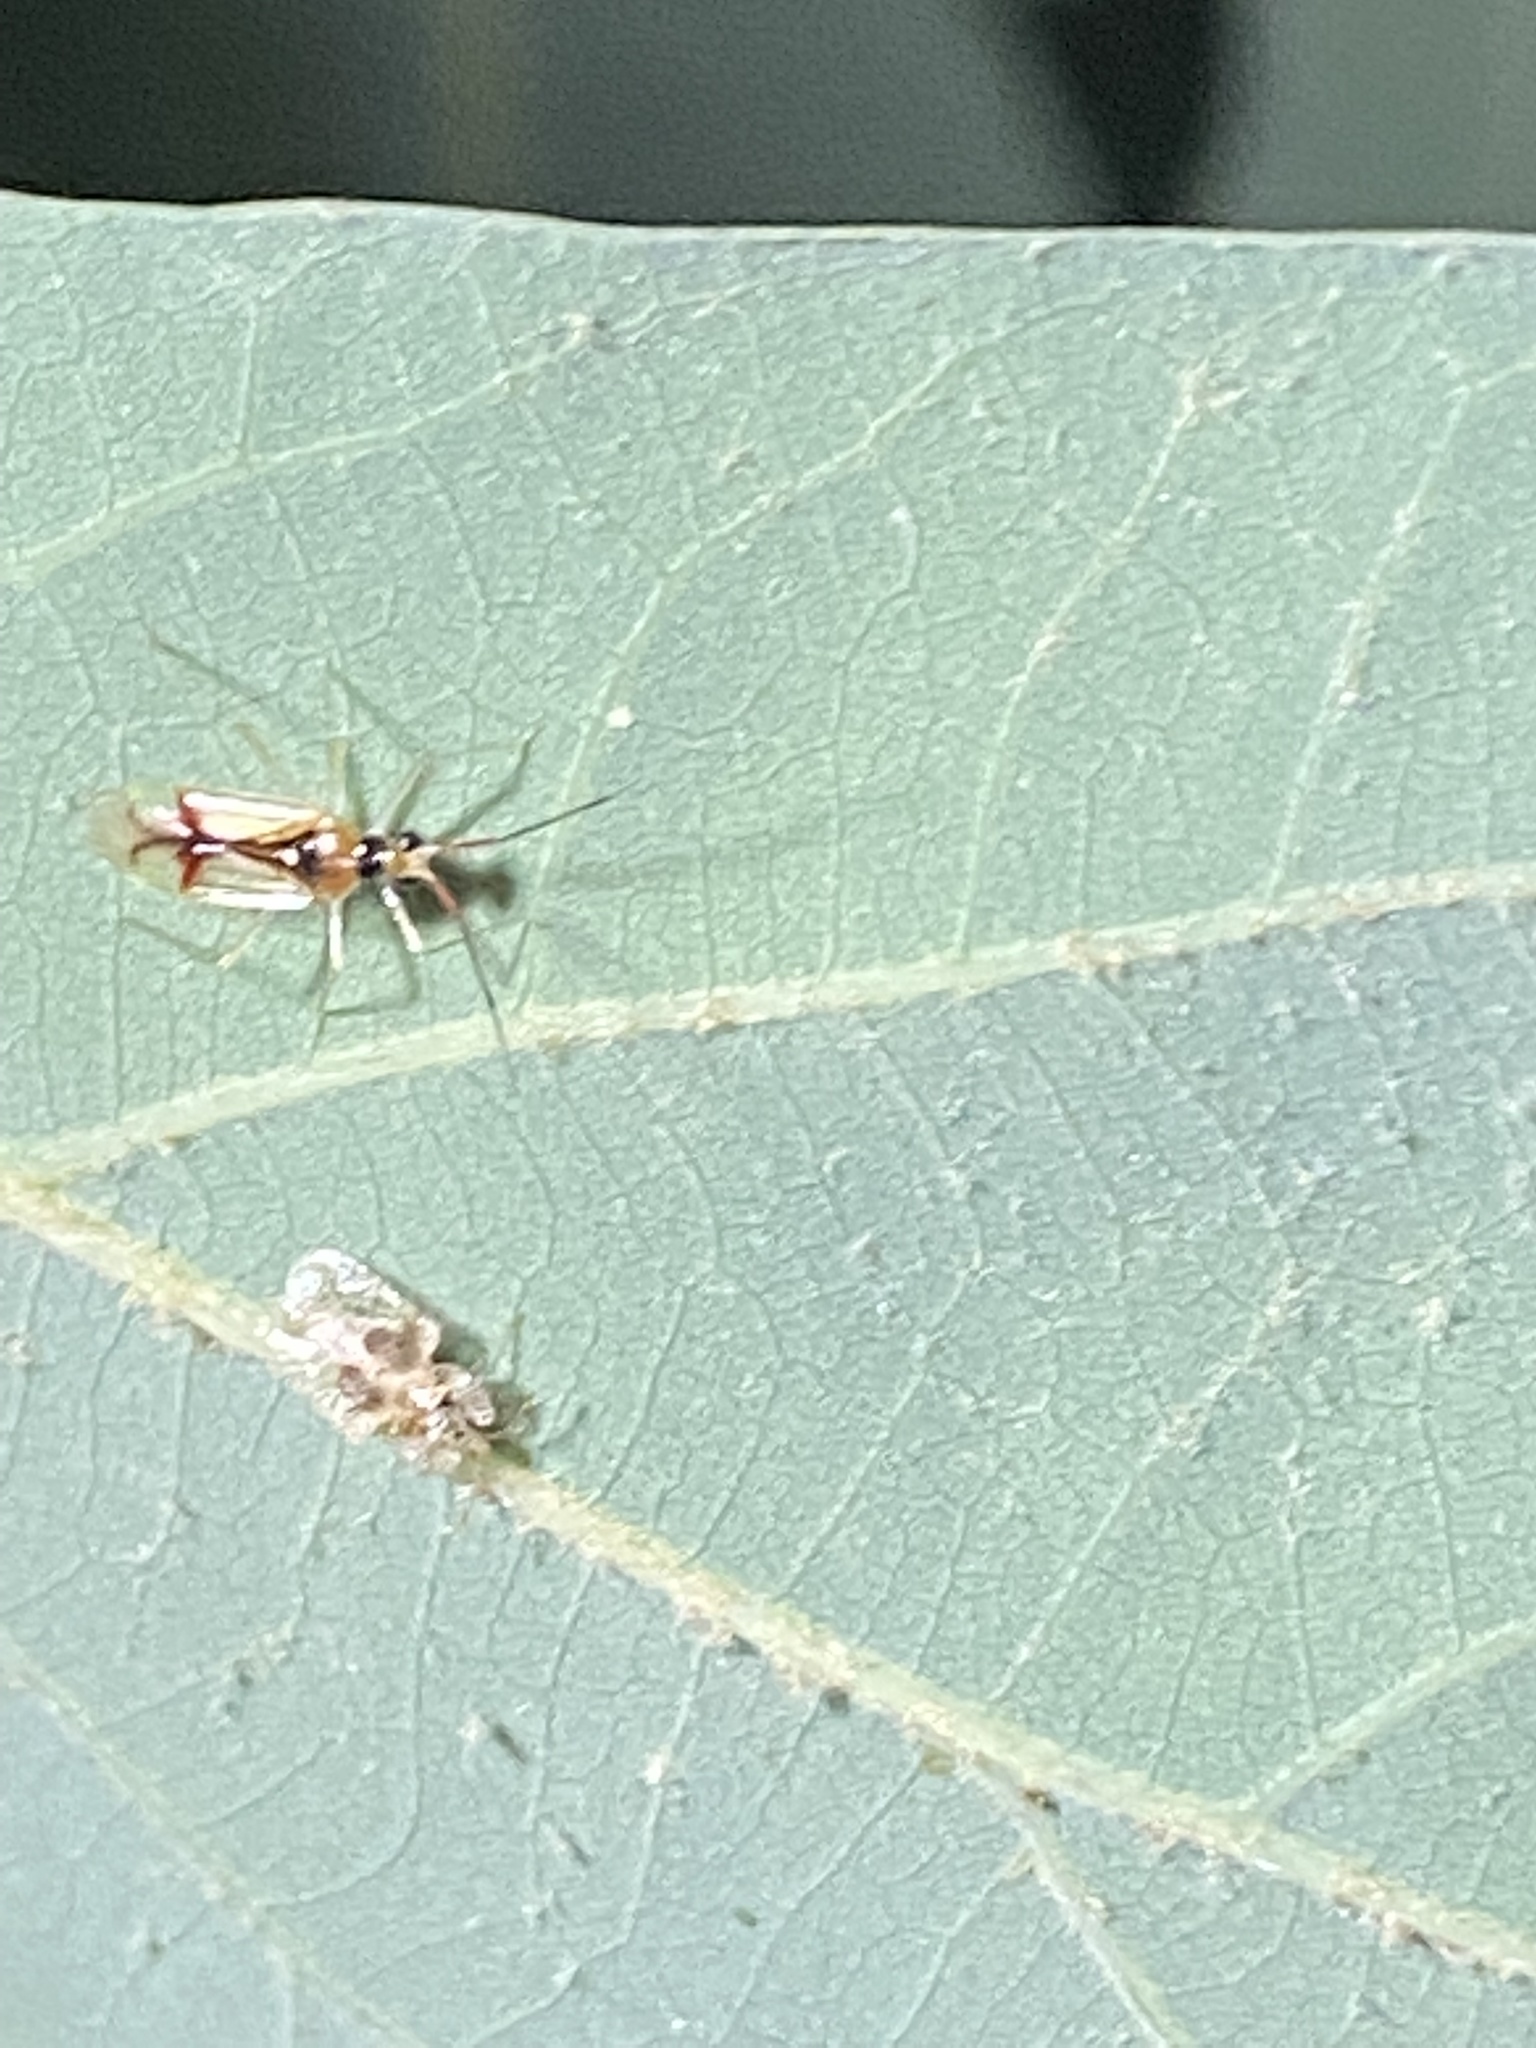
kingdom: Animalia
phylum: Arthropoda
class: Insecta
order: Hemiptera
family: Miridae
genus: Hyaliodes
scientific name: Hyaliodes harti
